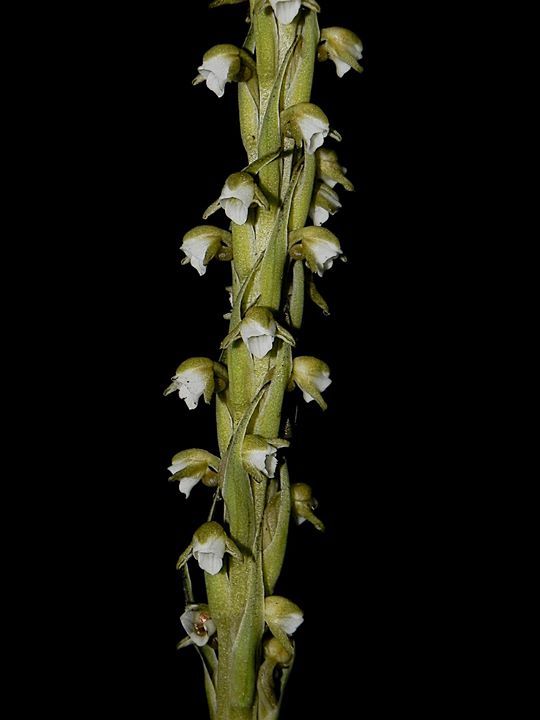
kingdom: Plantae
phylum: Tracheophyta
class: Liliopsida
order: Asparagales
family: Orchidaceae
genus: Peristylus
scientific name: Peristylus plantagineus
